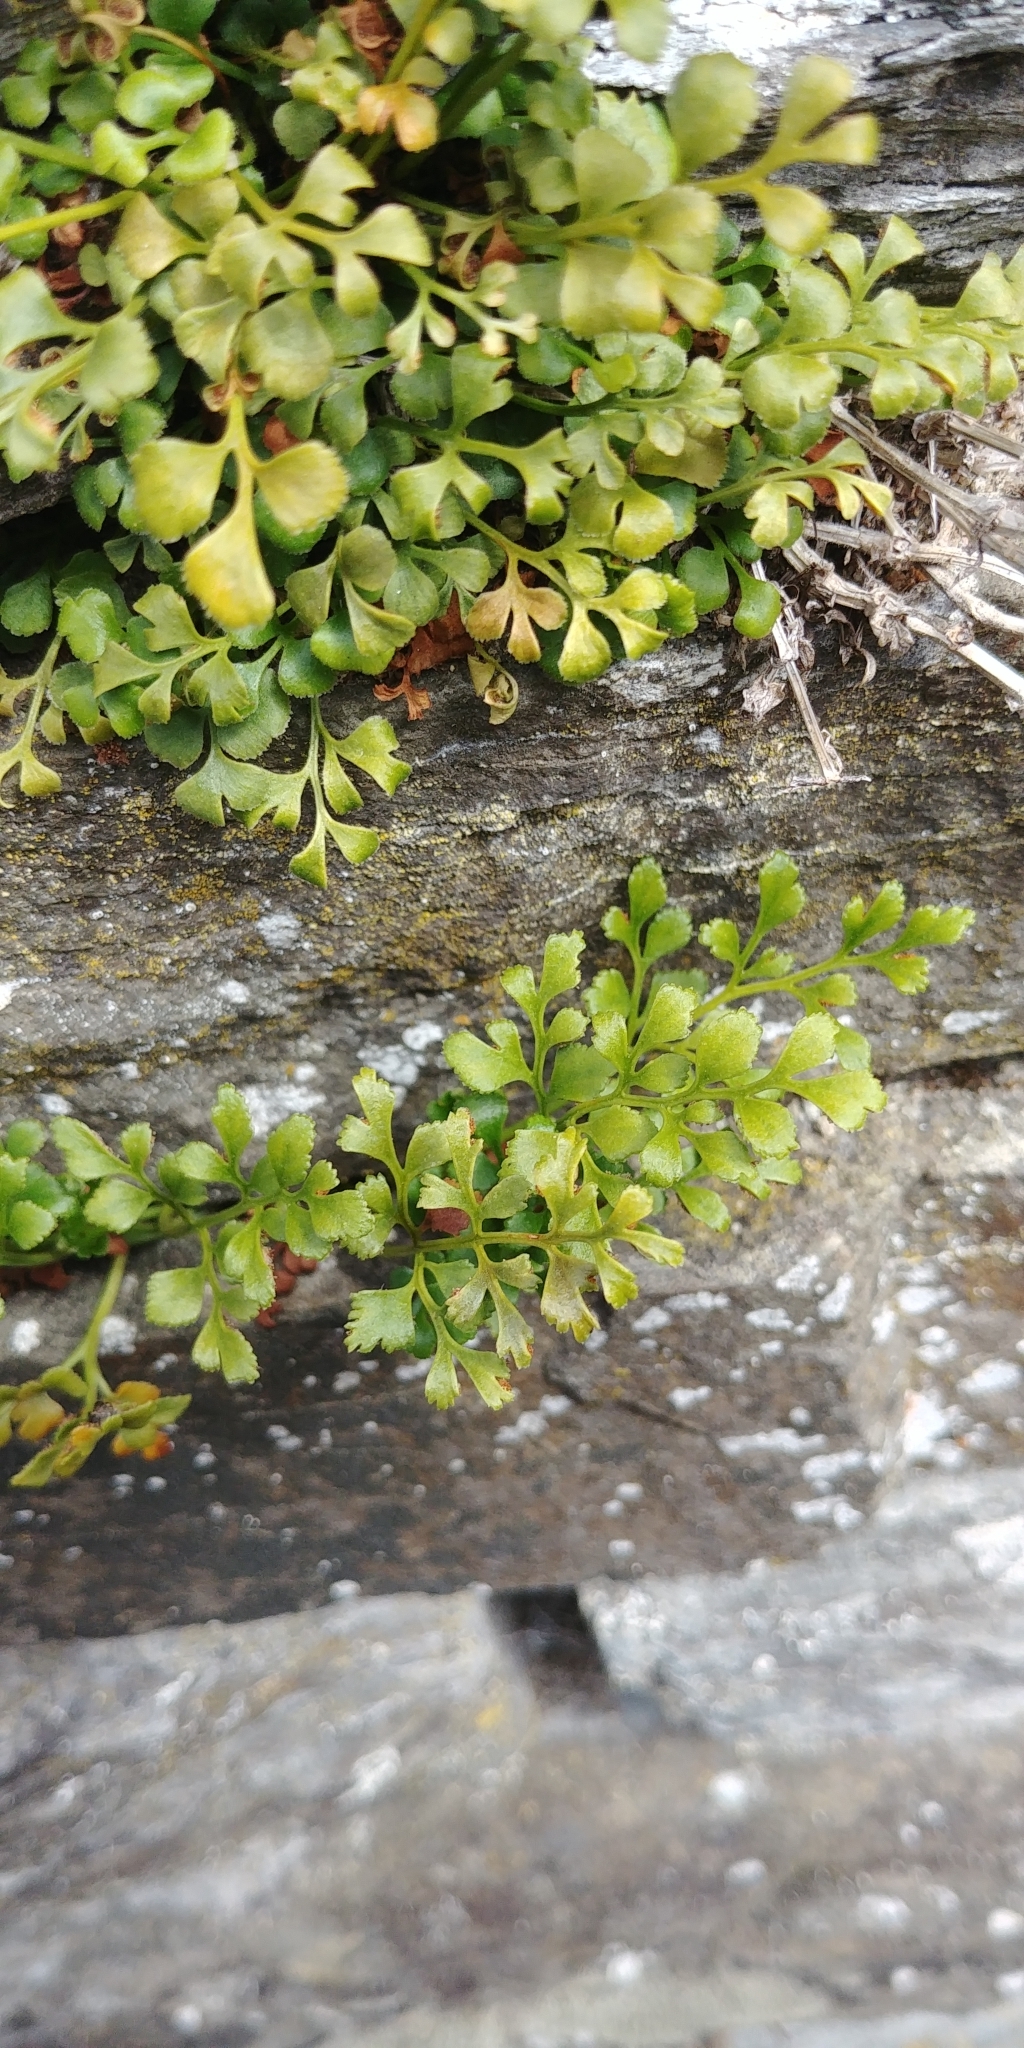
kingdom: Plantae
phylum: Tracheophyta
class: Polypodiopsida
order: Polypodiales
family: Aspleniaceae
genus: Asplenium
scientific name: Asplenium ruta-muraria
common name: Wall-rue
